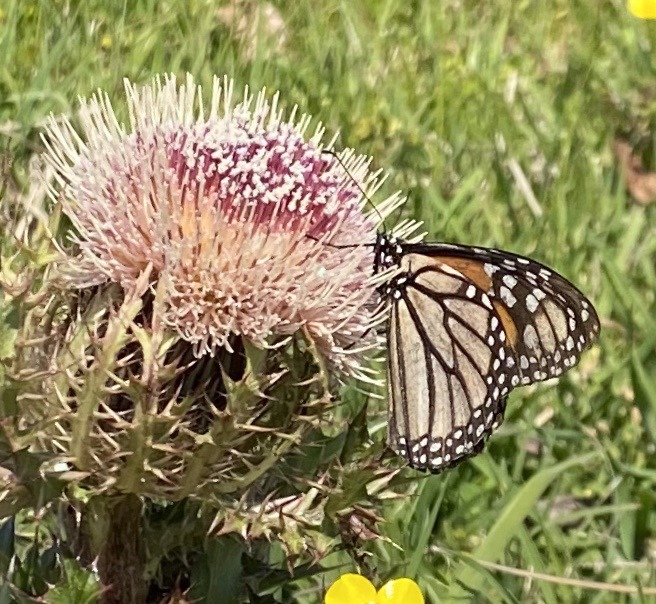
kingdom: Animalia
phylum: Arthropoda
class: Insecta
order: Lepidoptera
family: Nymphalidae
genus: Danaus
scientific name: Danaus plexippus
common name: Monarch
